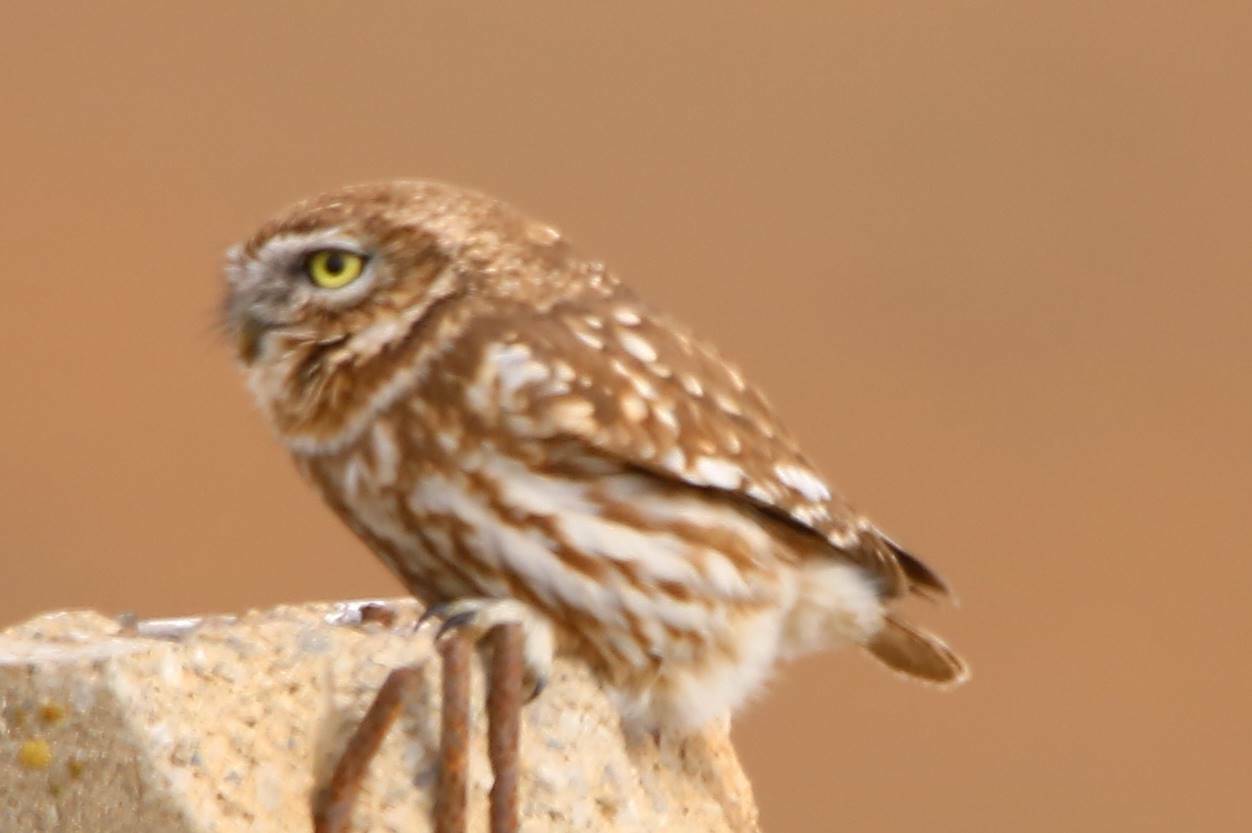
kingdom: Animalia
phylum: Chordata
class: Aves
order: Strigiformes
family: Strigidae
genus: Athene
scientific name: Athene noctua
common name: Little owl
